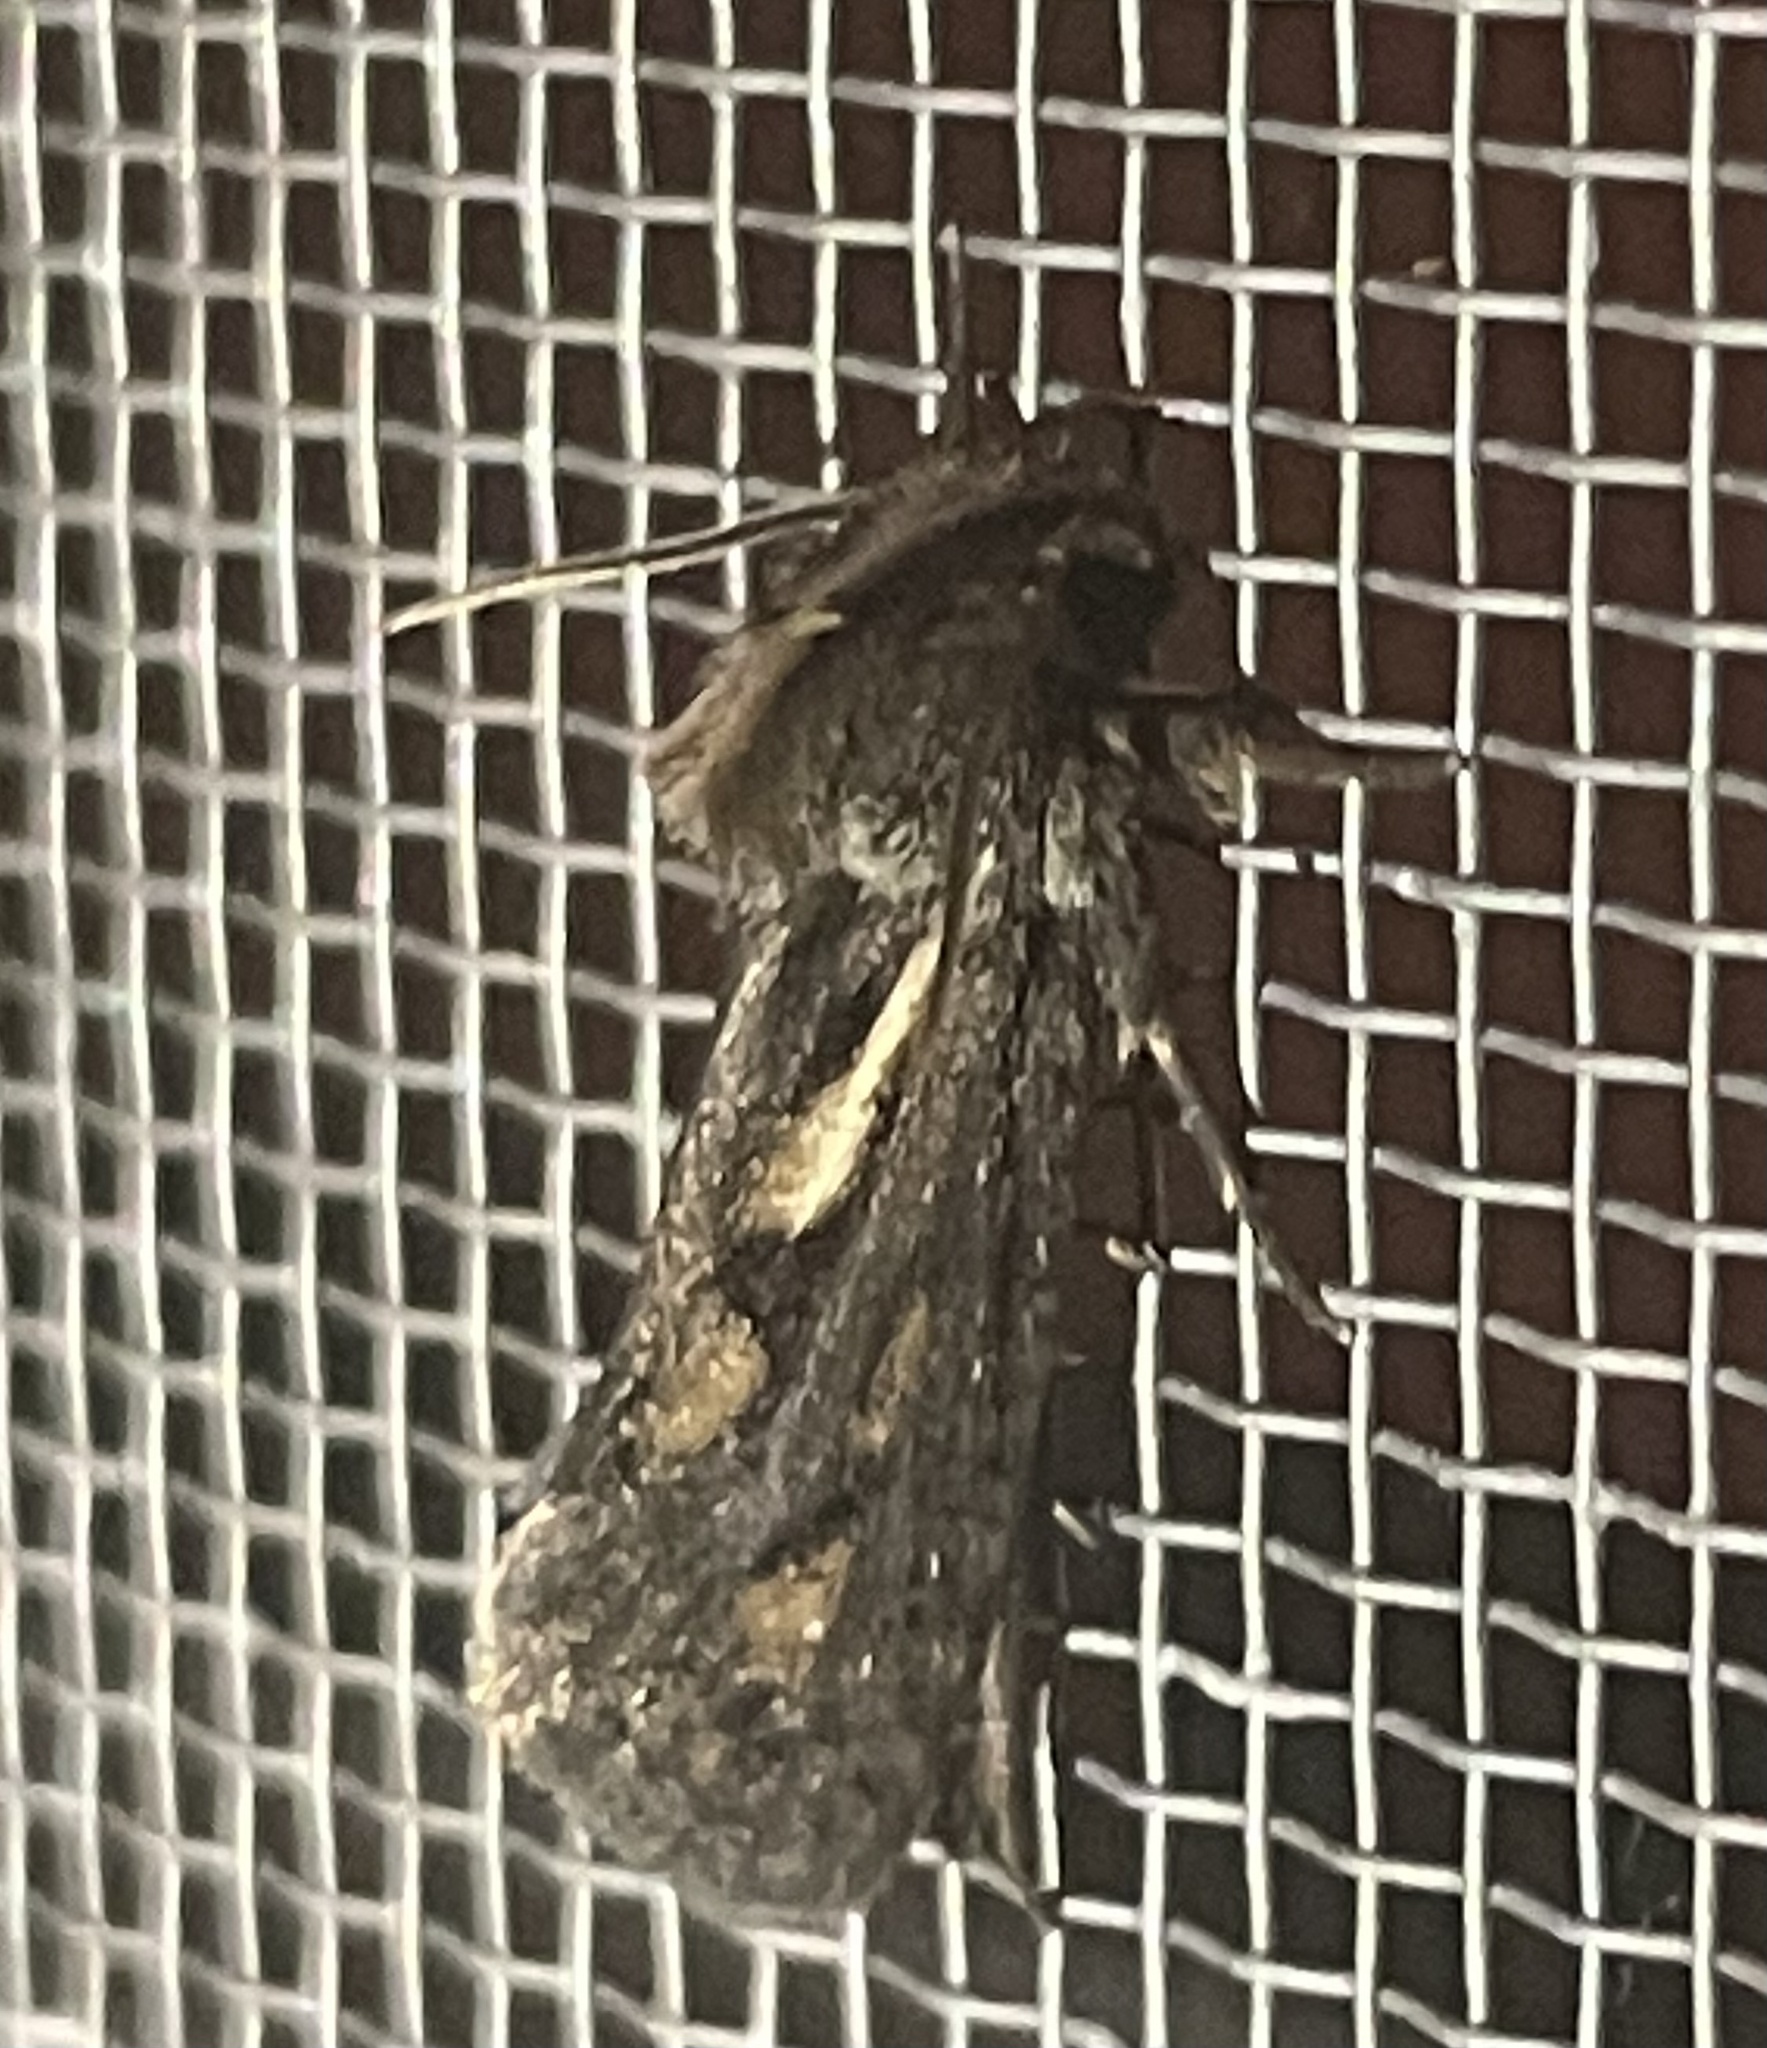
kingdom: Animalia
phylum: Arthropoda
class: Insecta
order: Lepidoptera
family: Tineidae
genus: Acrolophus
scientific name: Acrolophus popeanella
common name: Clemens' grass tubeworm moth
